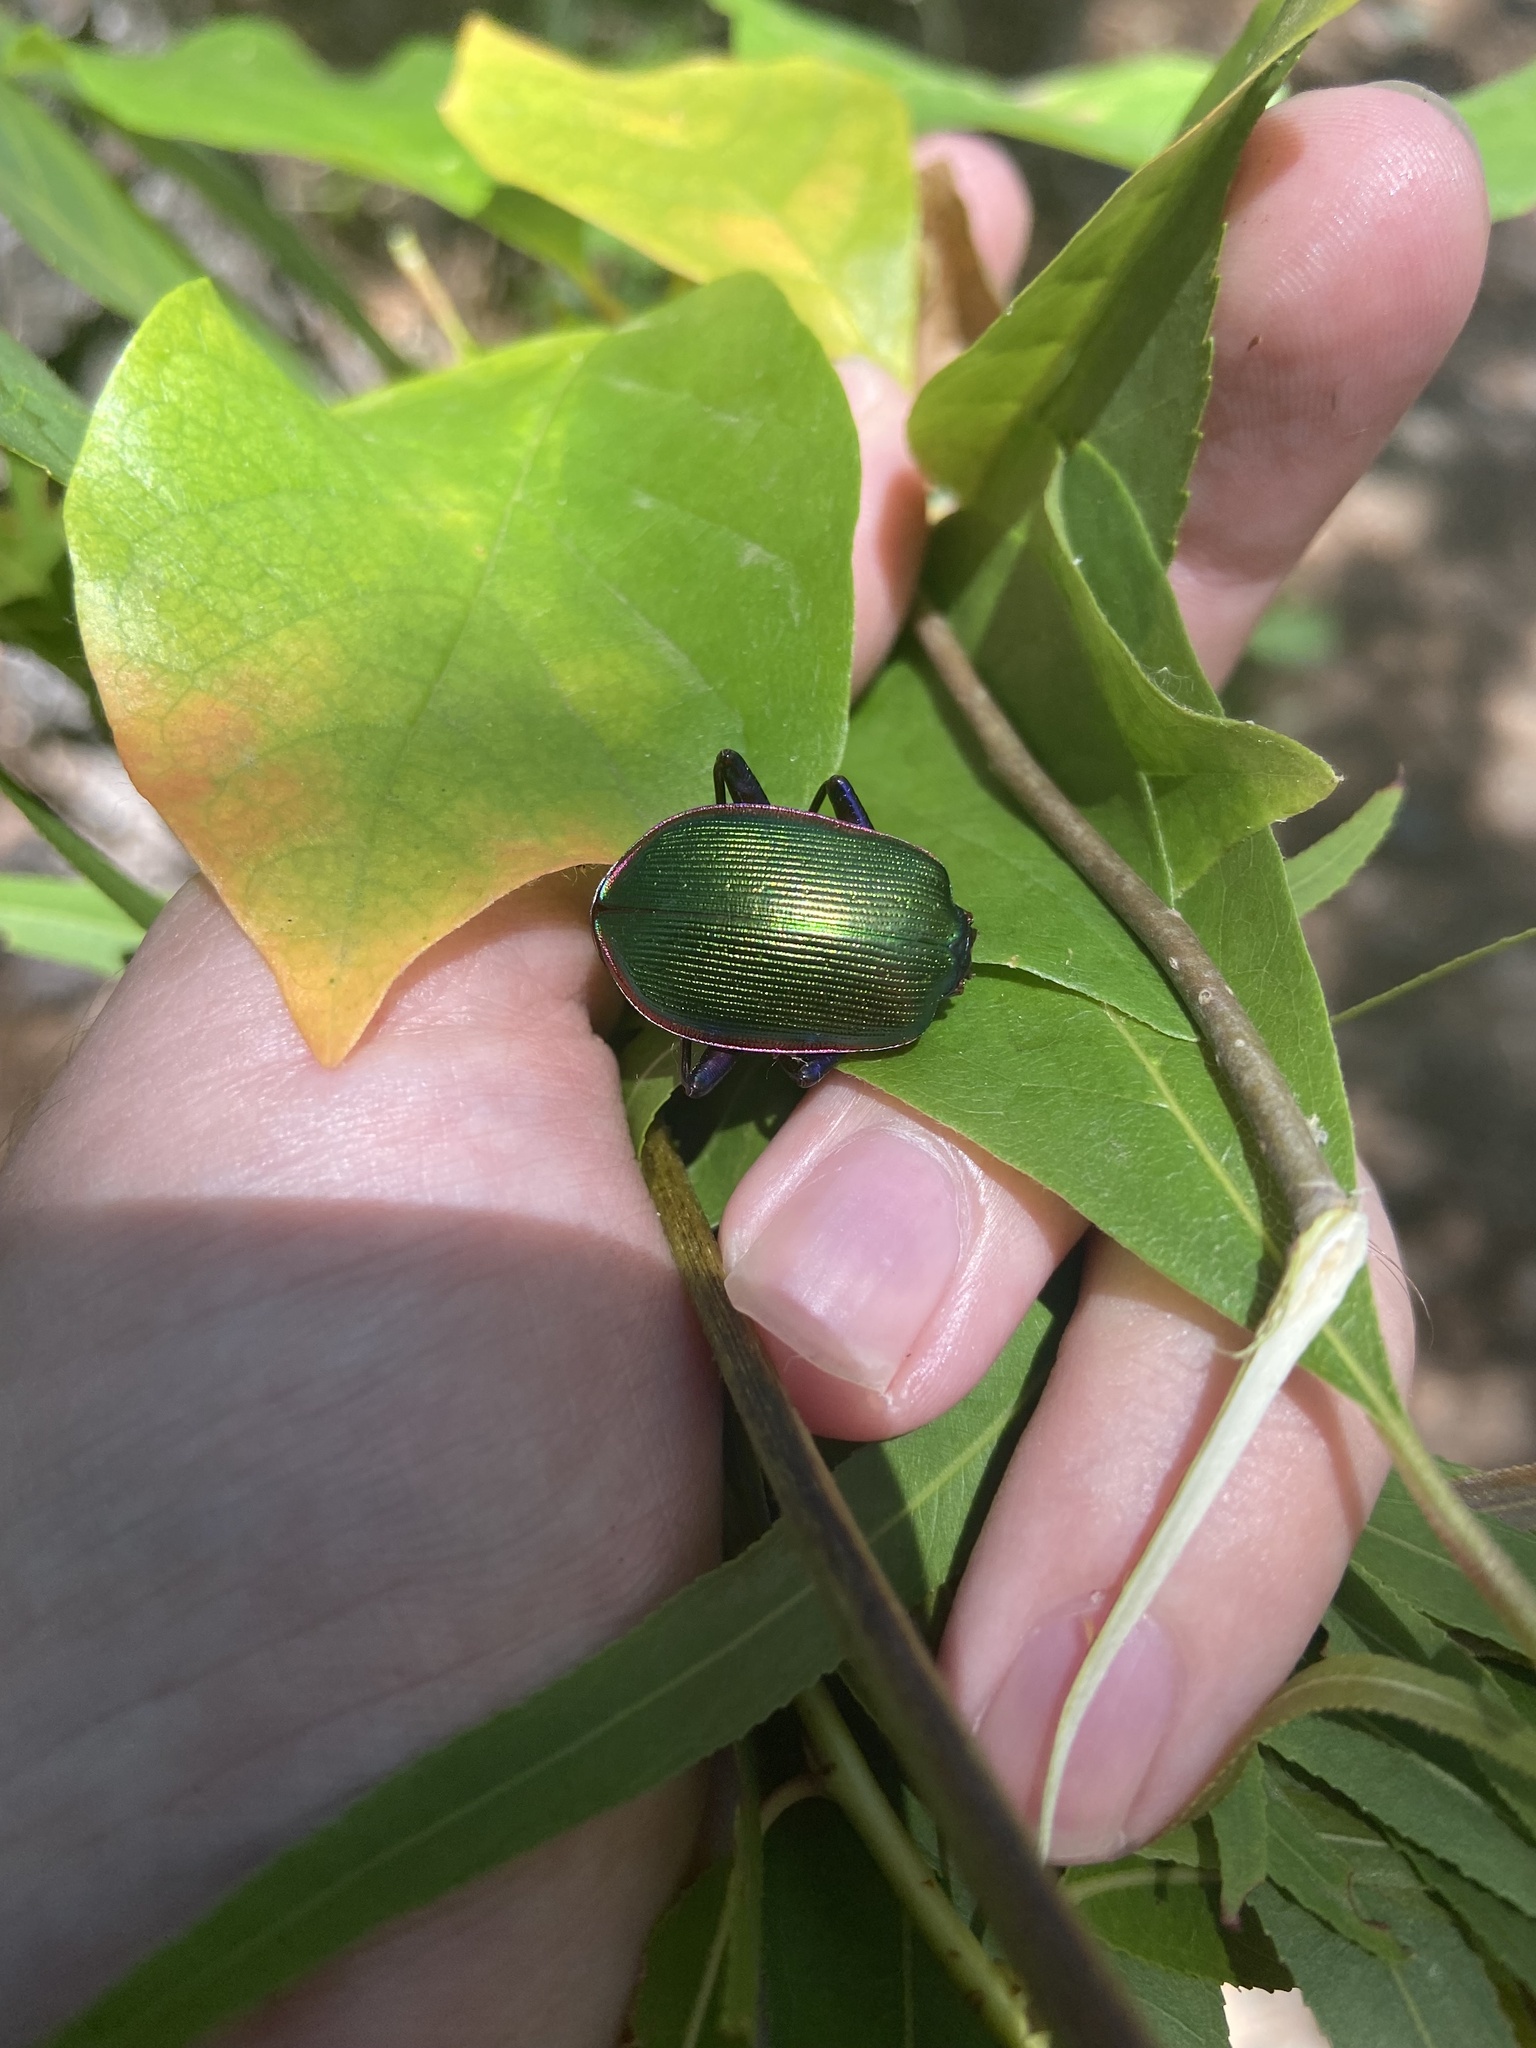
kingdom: Animalia
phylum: Arthropoda
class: Insecta
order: Coleoptera
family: Carabidae
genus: Calosoma
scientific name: Calosoma scrutator
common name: Fiery searcher beetle
